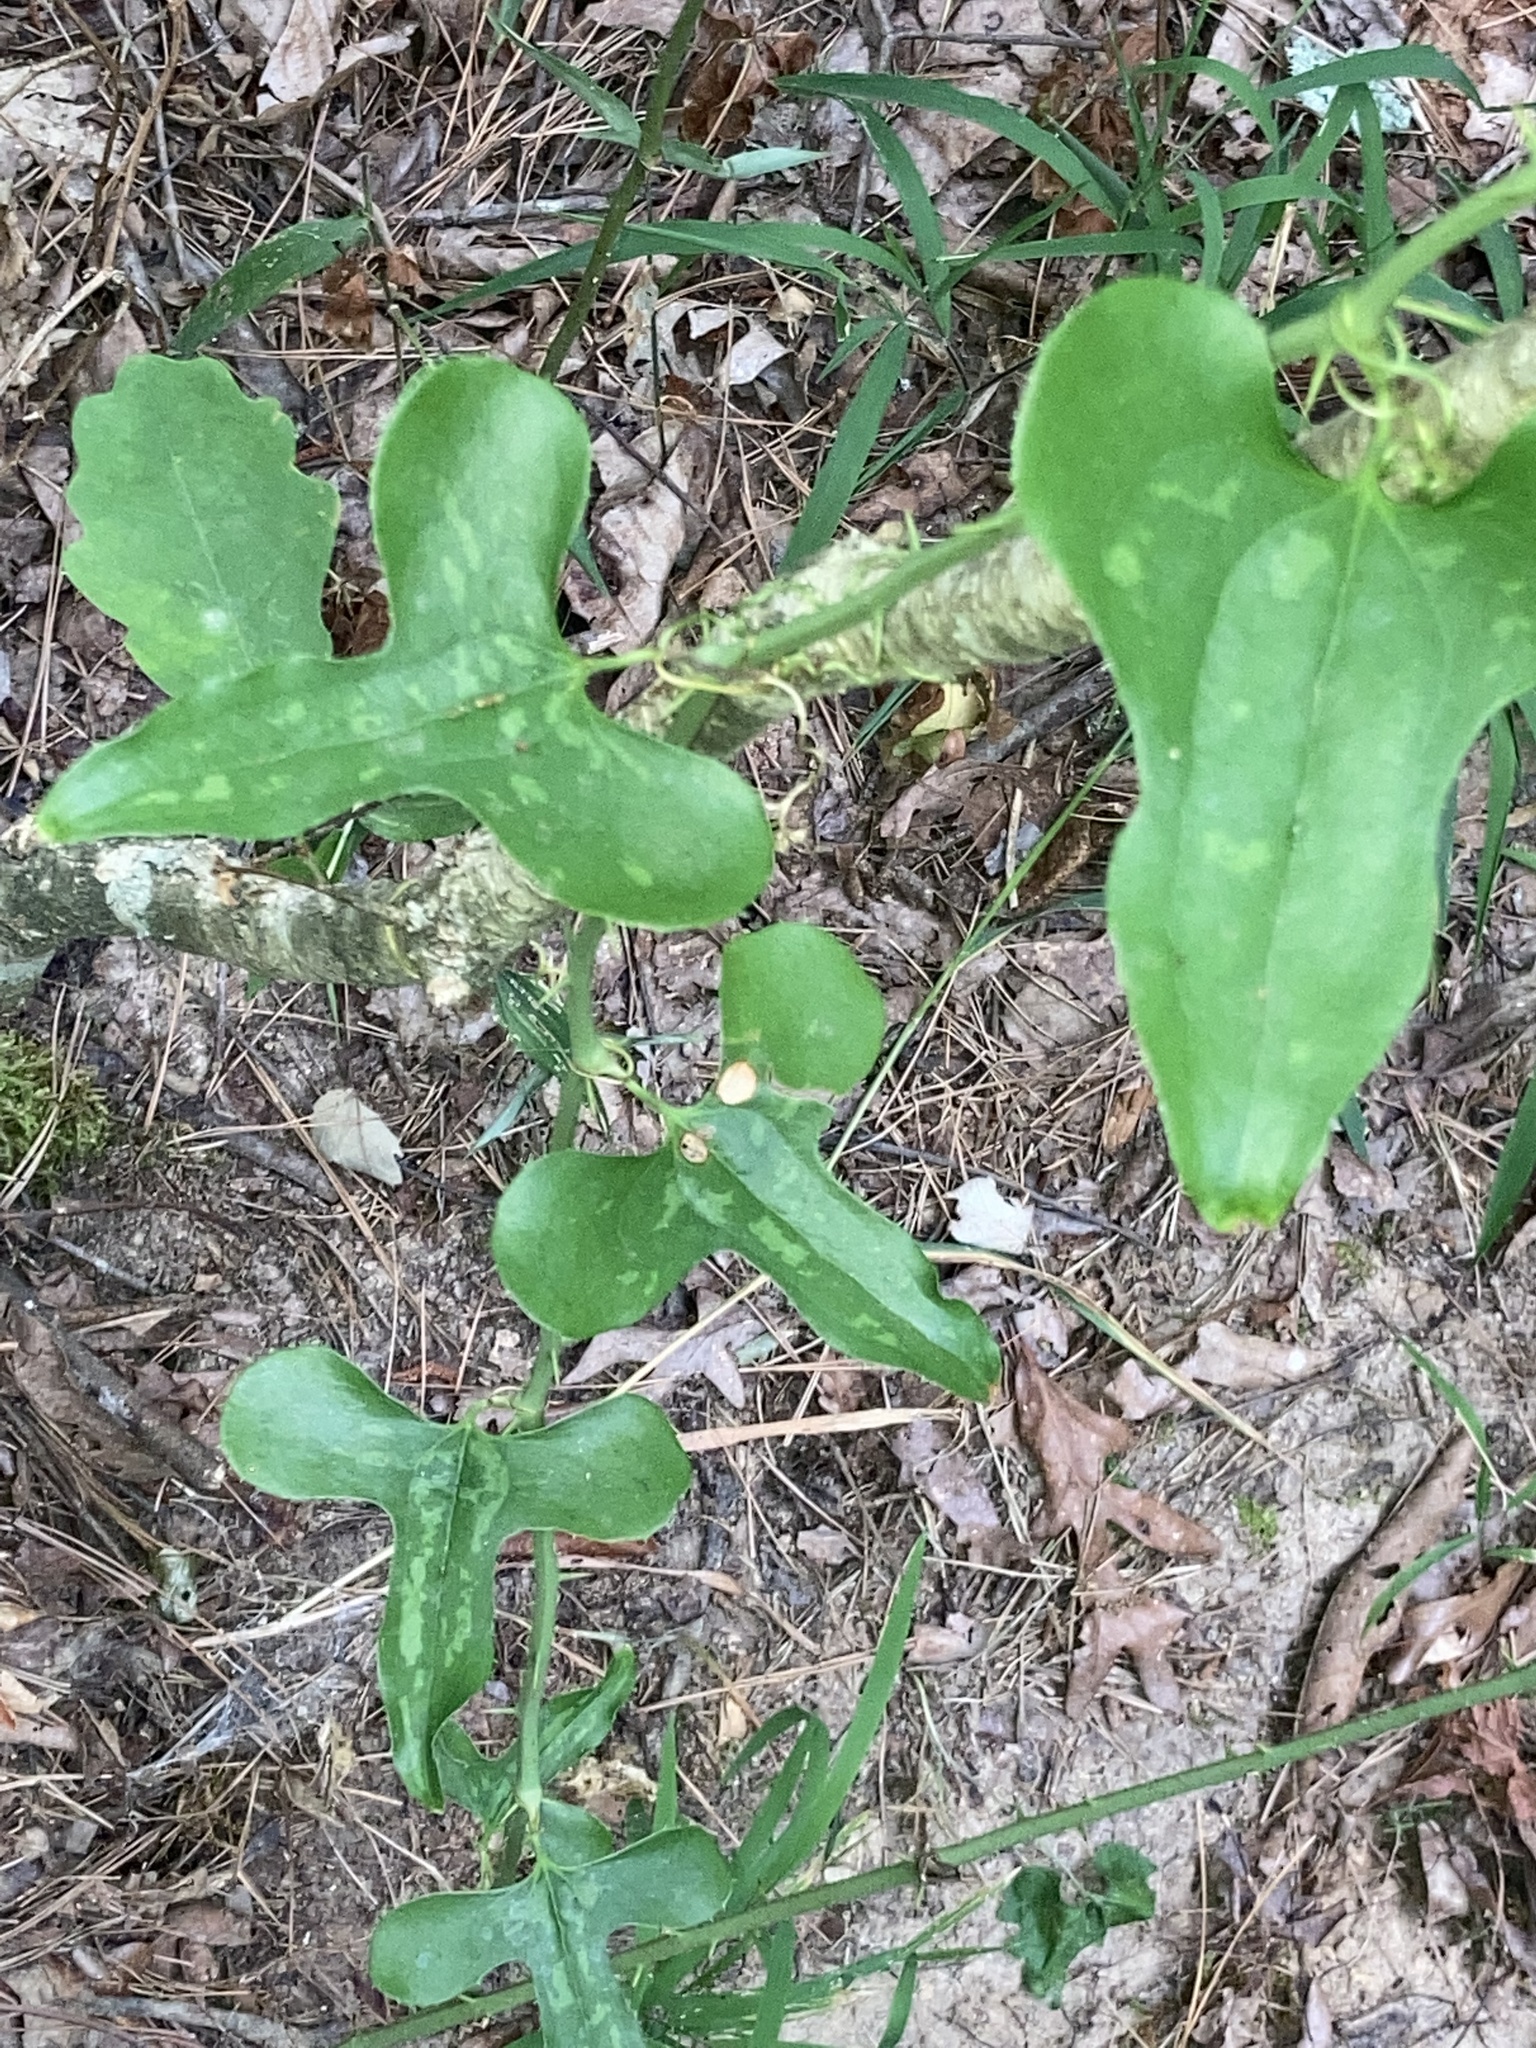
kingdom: Plantae
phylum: Tracheophyta
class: Liliopsida
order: Liliales
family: Smilacaceae
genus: Smilax
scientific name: Smilax bona-nox
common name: Catbrier
